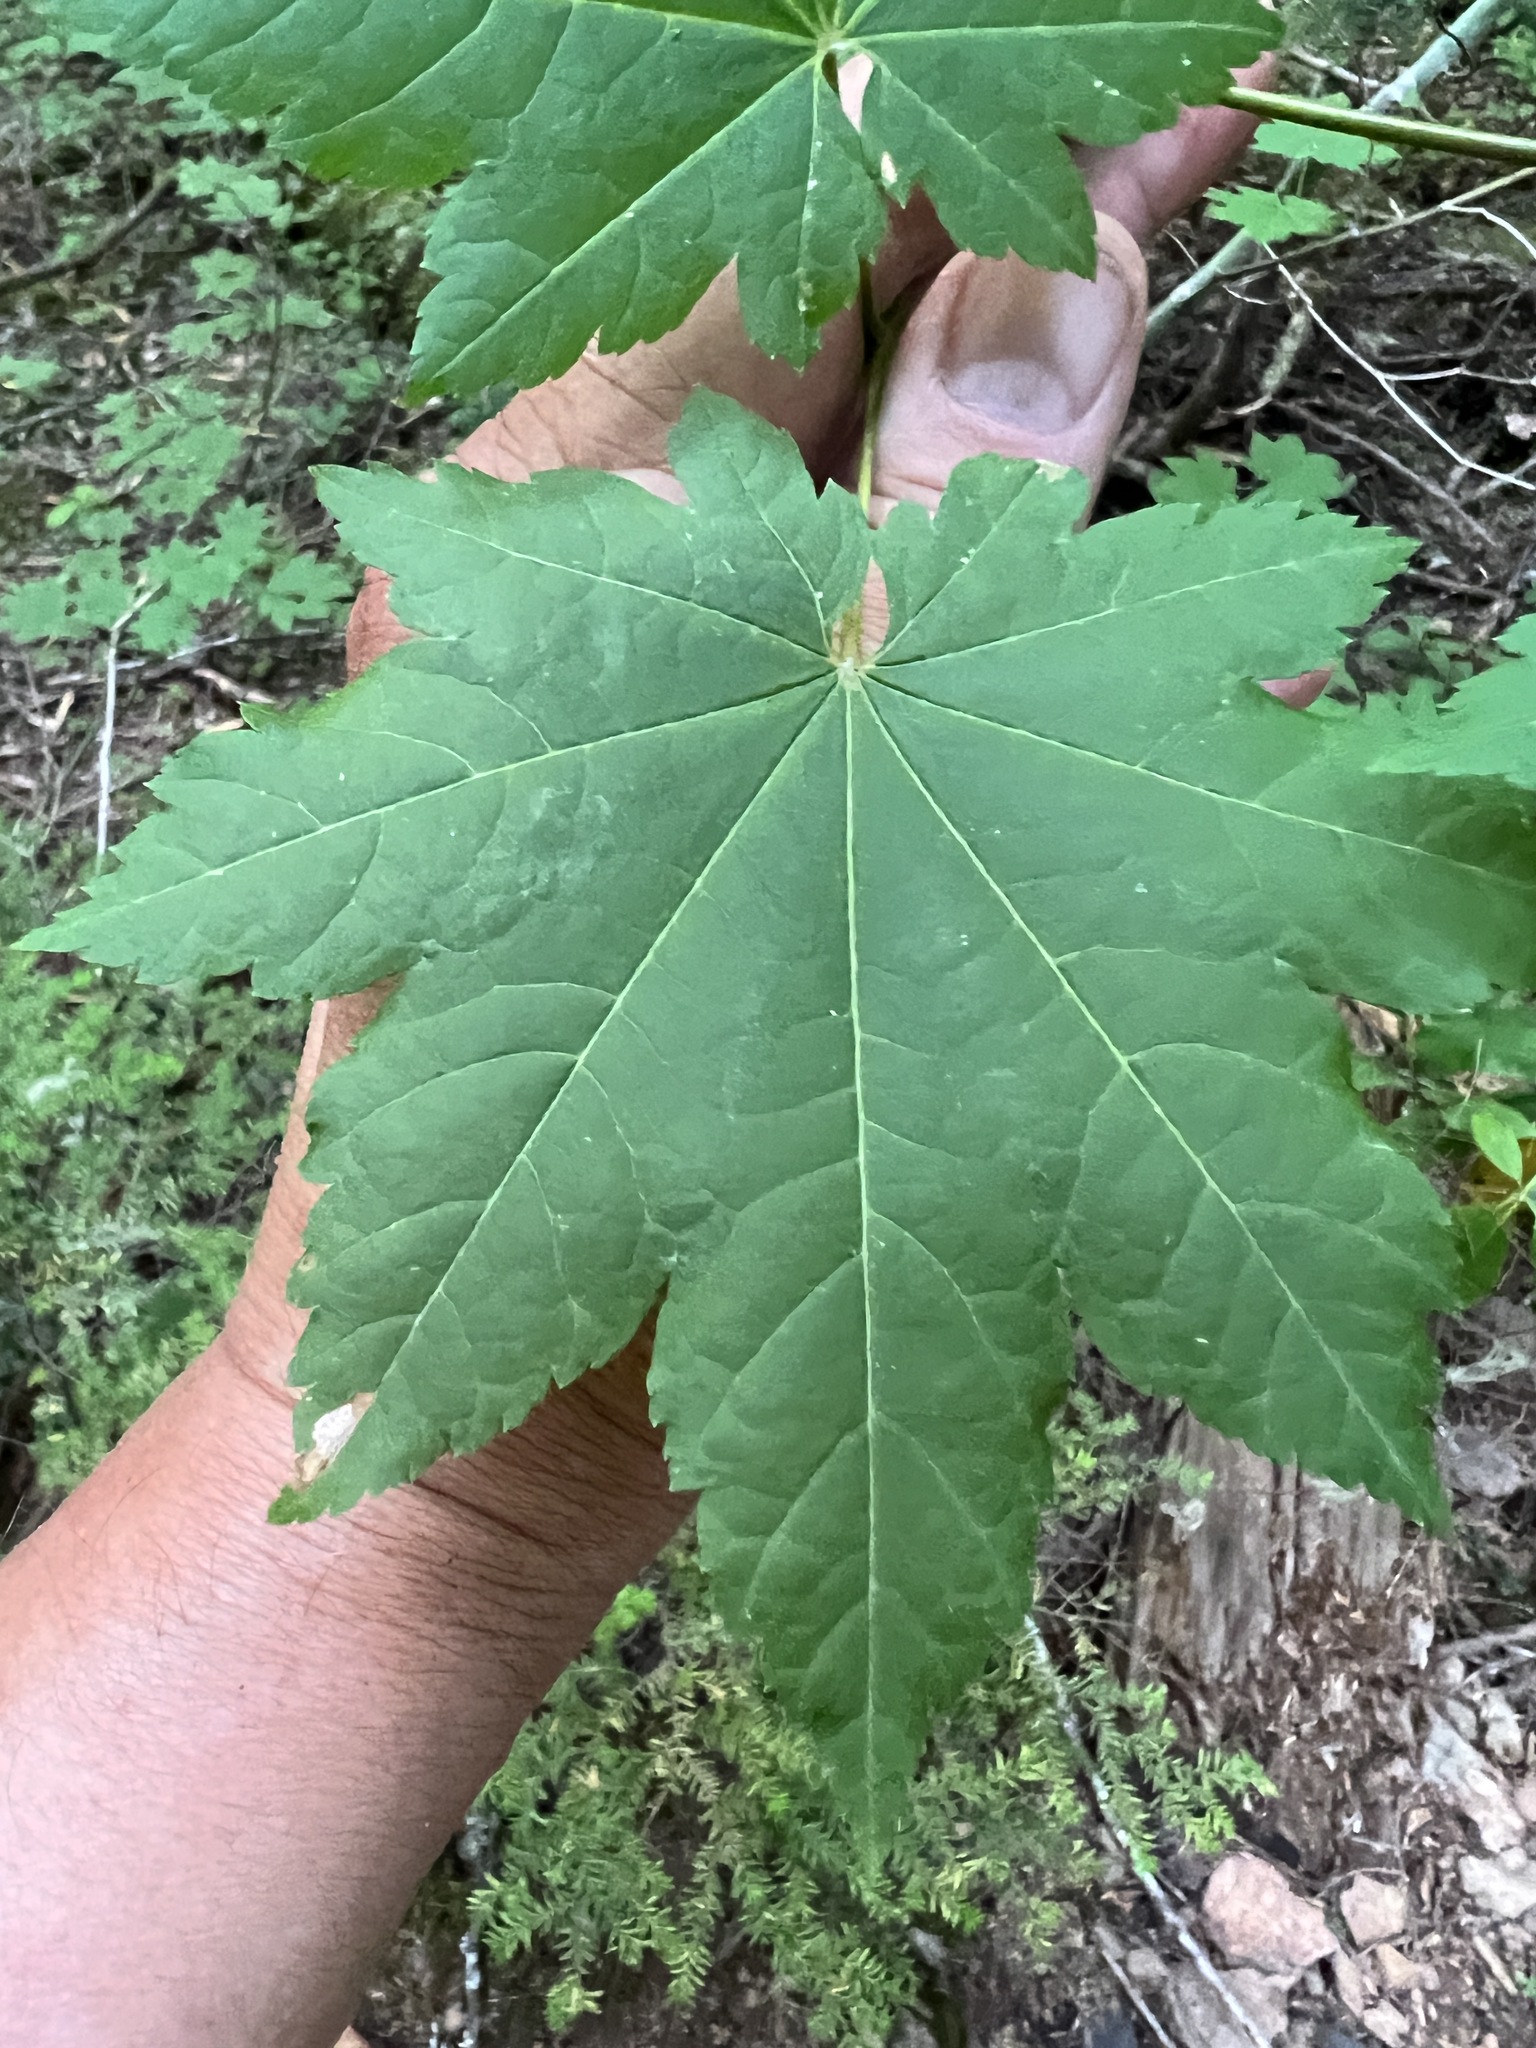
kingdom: Plantae
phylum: Tracheophyta
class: Magnoliopsida
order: Sapindales
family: Sapindaceae
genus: Acer
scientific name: Acer circinatum
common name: Vine maple
